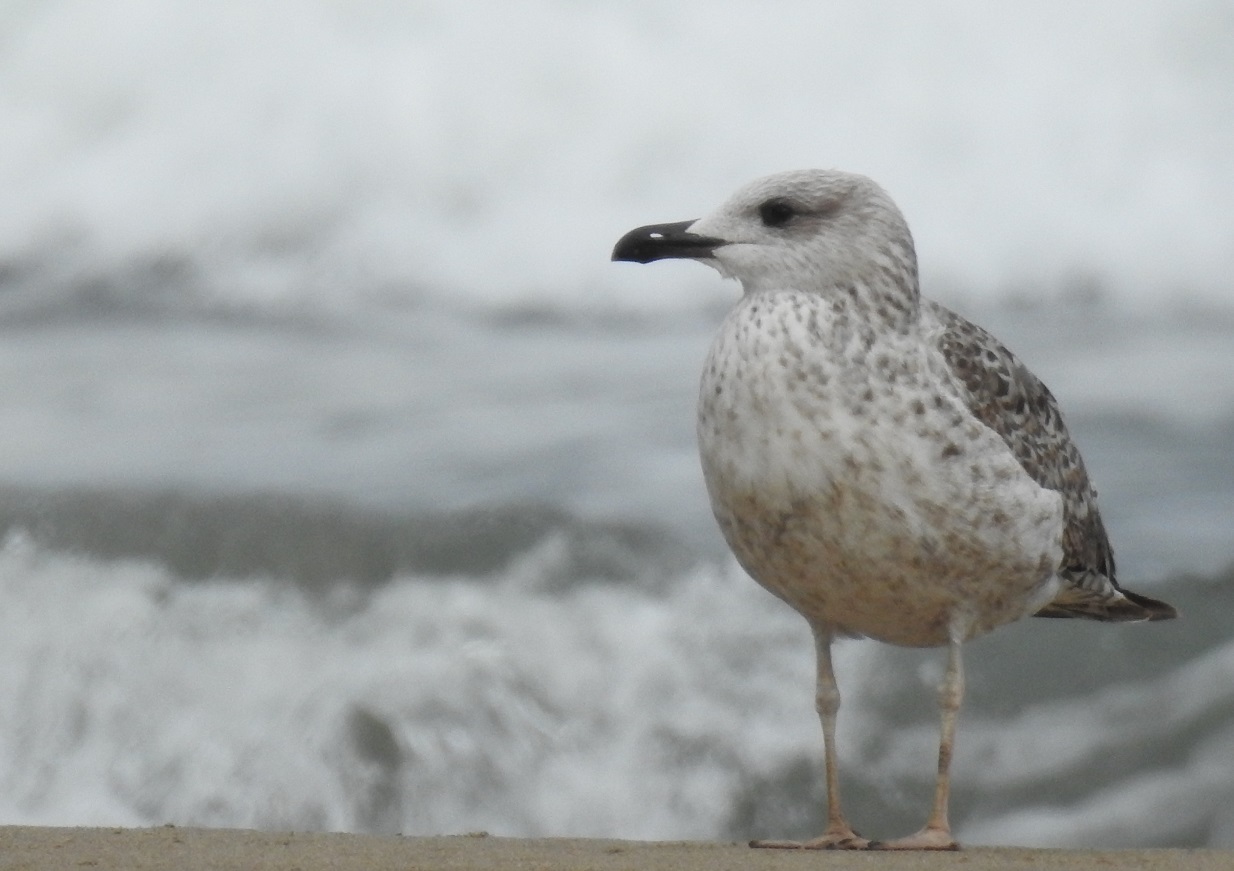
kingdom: Animalia
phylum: Chordata
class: Aves
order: Charadriiformes
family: Laridae
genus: Larus
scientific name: Larus fuscus
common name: Lesser black-backed gull
